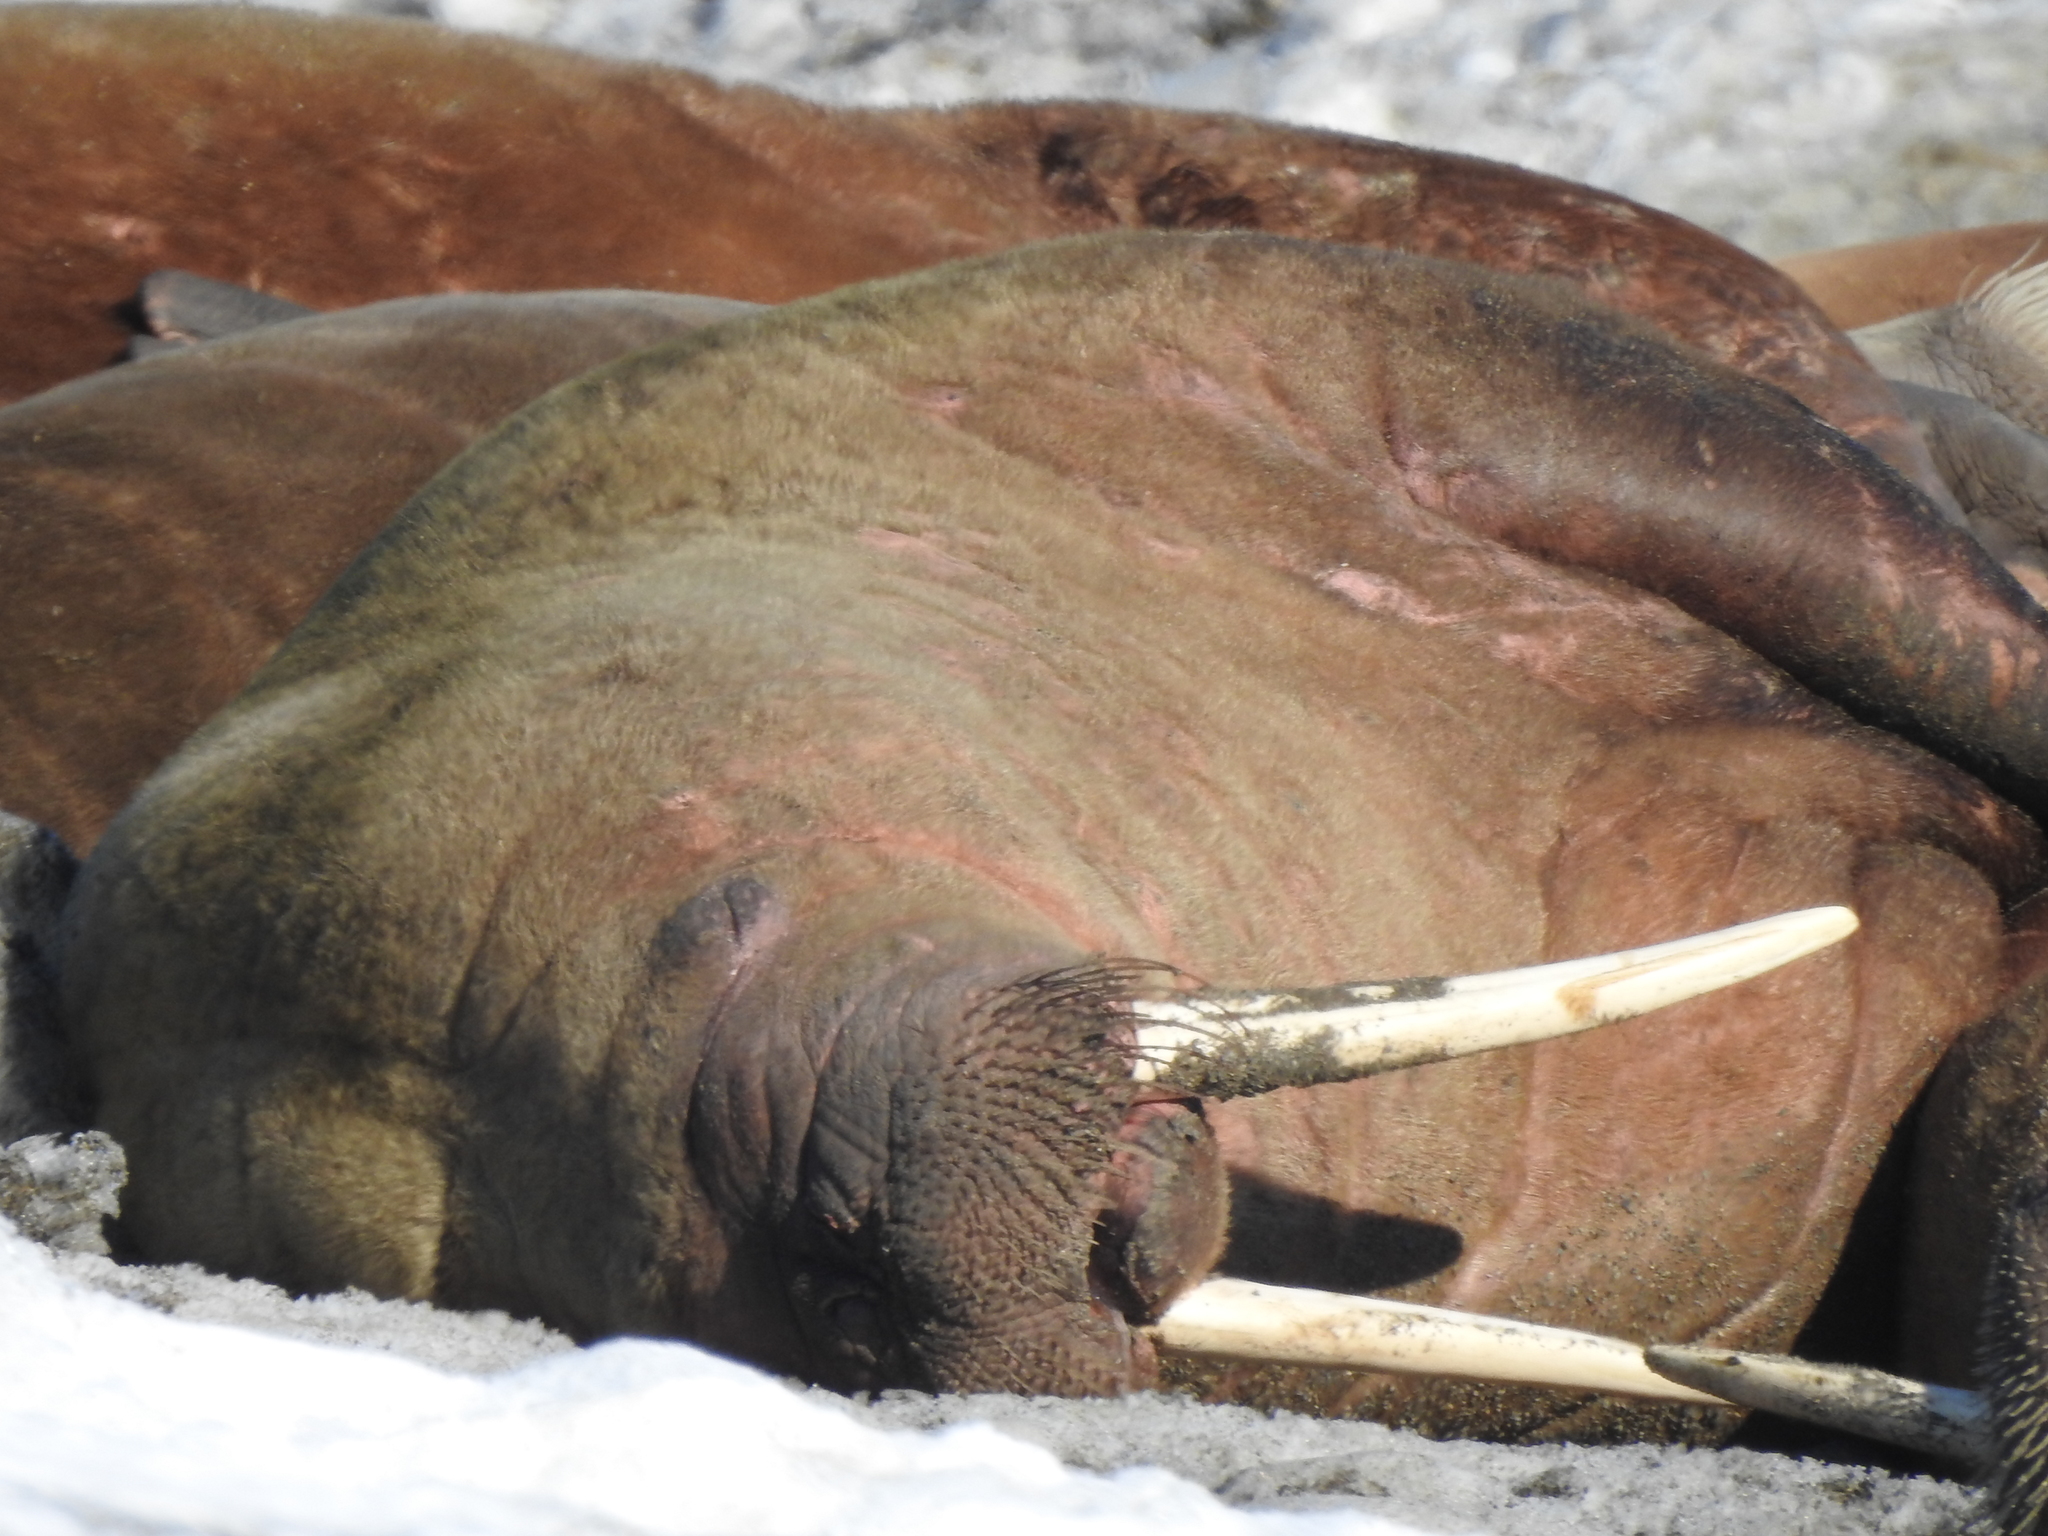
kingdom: Animalia
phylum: Chordata
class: Mammalia
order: Carnivora
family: Odobenidae
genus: Odobenus
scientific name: Odobenus rosmarus
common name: Walrus
